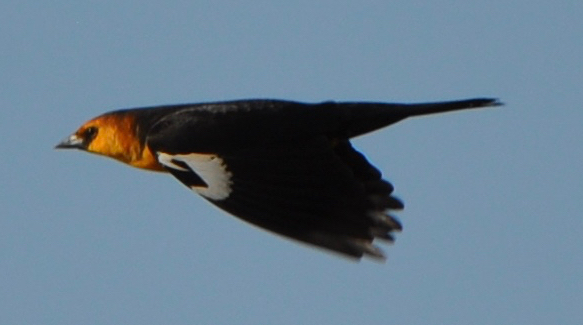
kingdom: Animalia
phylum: Chordata
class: Aves
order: Passeriformes
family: Icteridae
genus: Xanthocephalus
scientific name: Xanthocephalus xanthocephalus
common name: Yellow-headed blackbird
